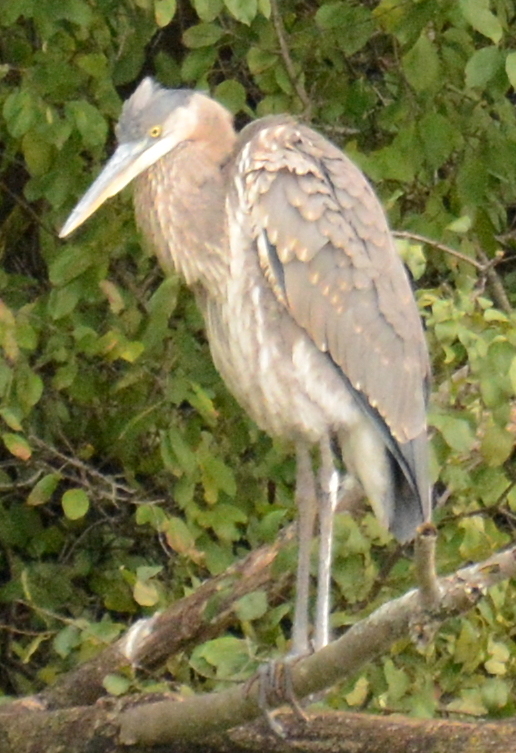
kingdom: Animalia
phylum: Chordata
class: Aves
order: Pelecaniformes
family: Ardeidae
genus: Ardea
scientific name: Ardea herodias
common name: Great blue heron
